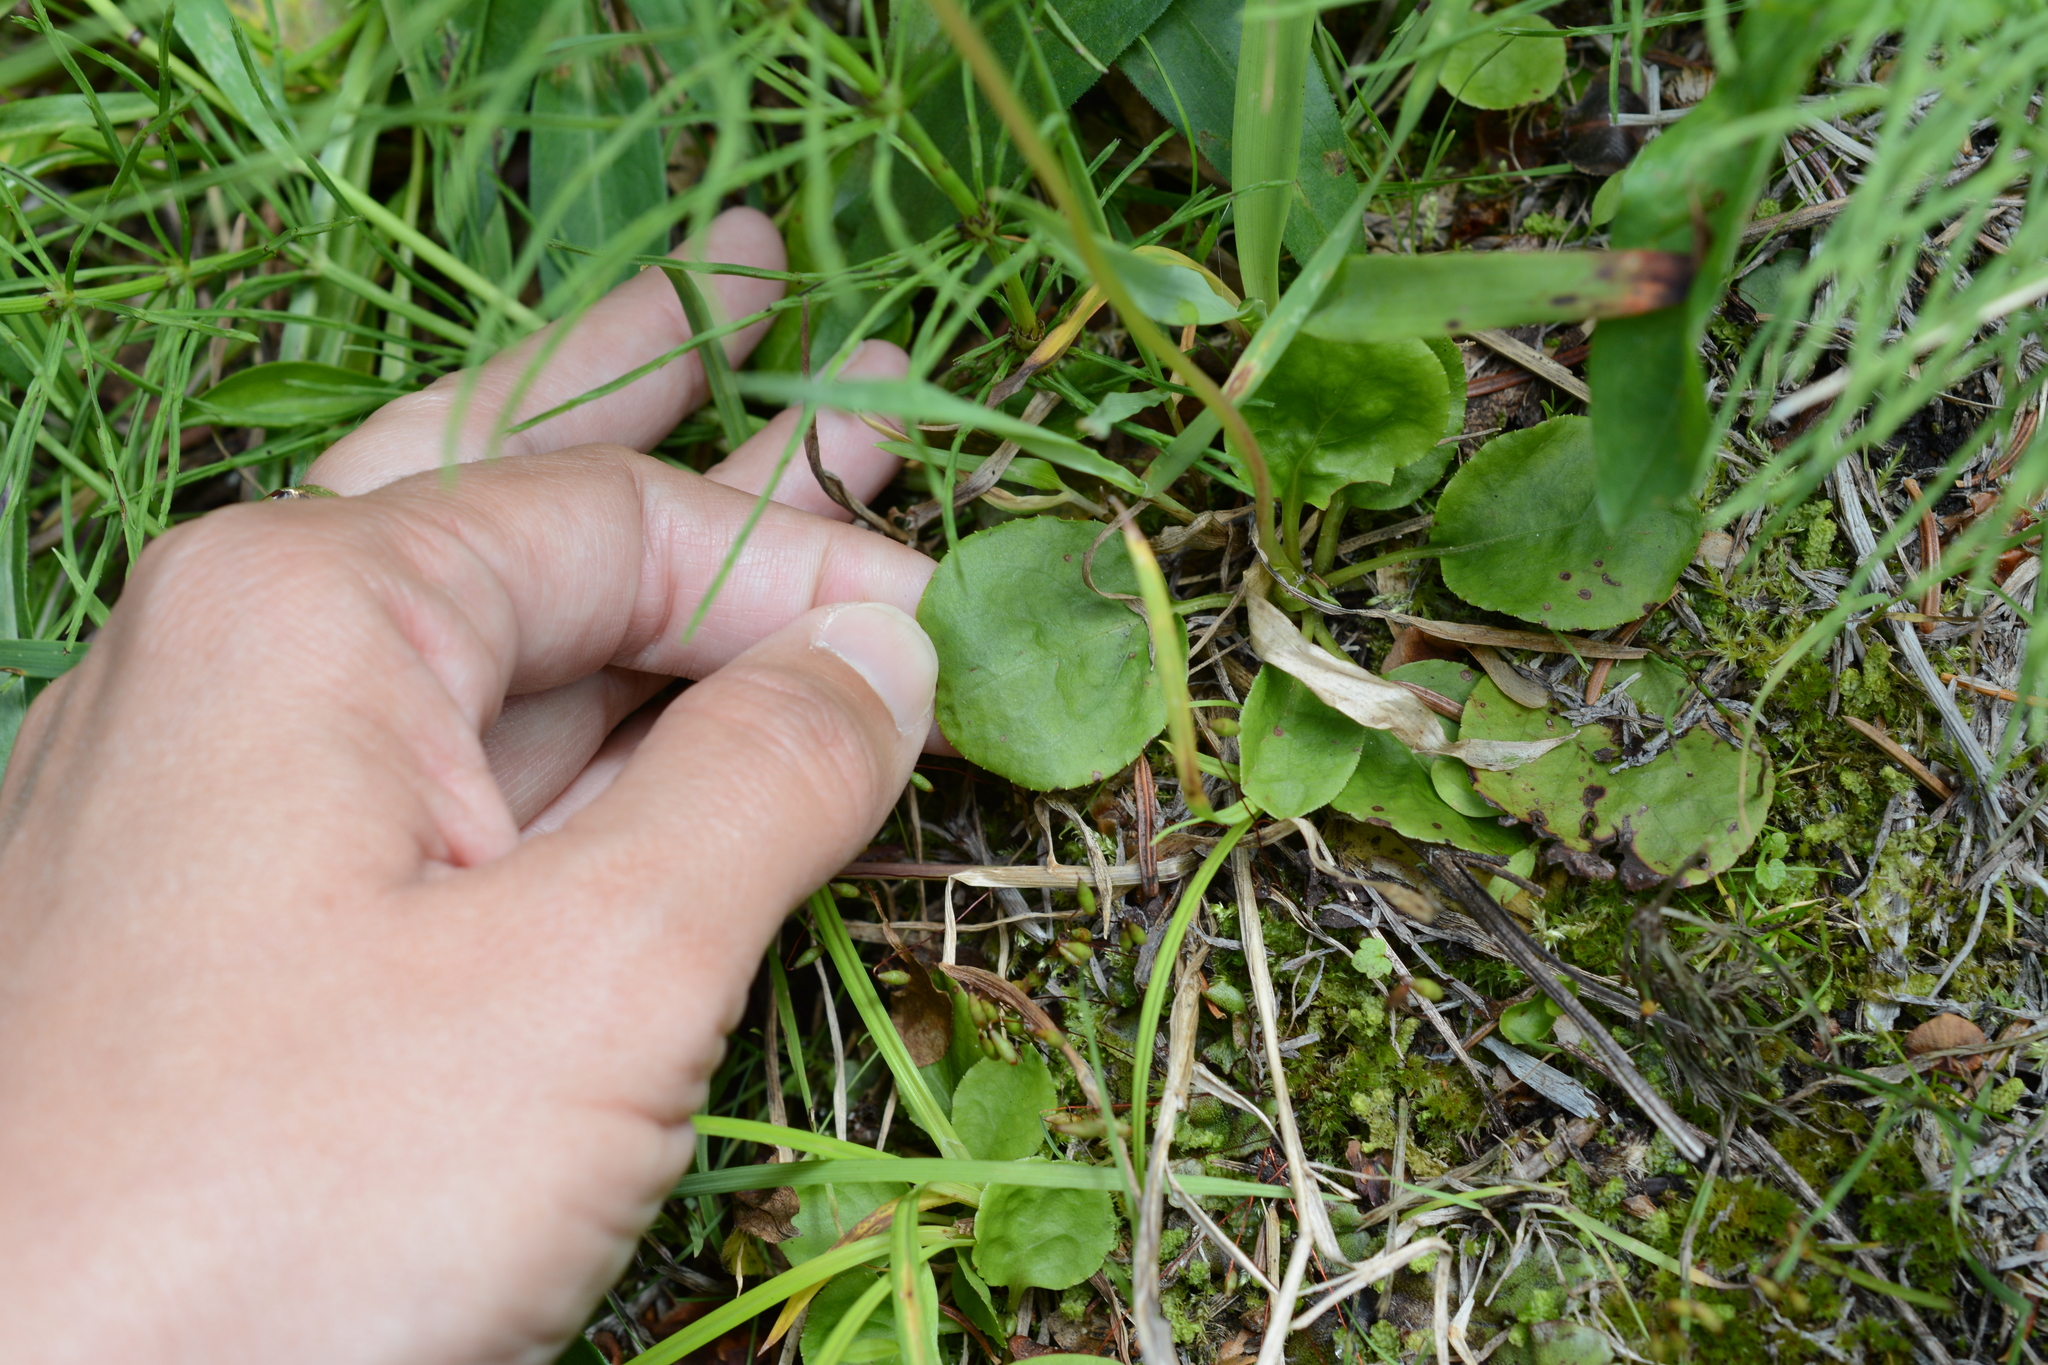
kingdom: Plantae
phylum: Tracheophyta
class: Magnoliopsida
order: Ericales
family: Ericaceae
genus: Pyrola
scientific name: Pyrola minor
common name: Common wintergreen
